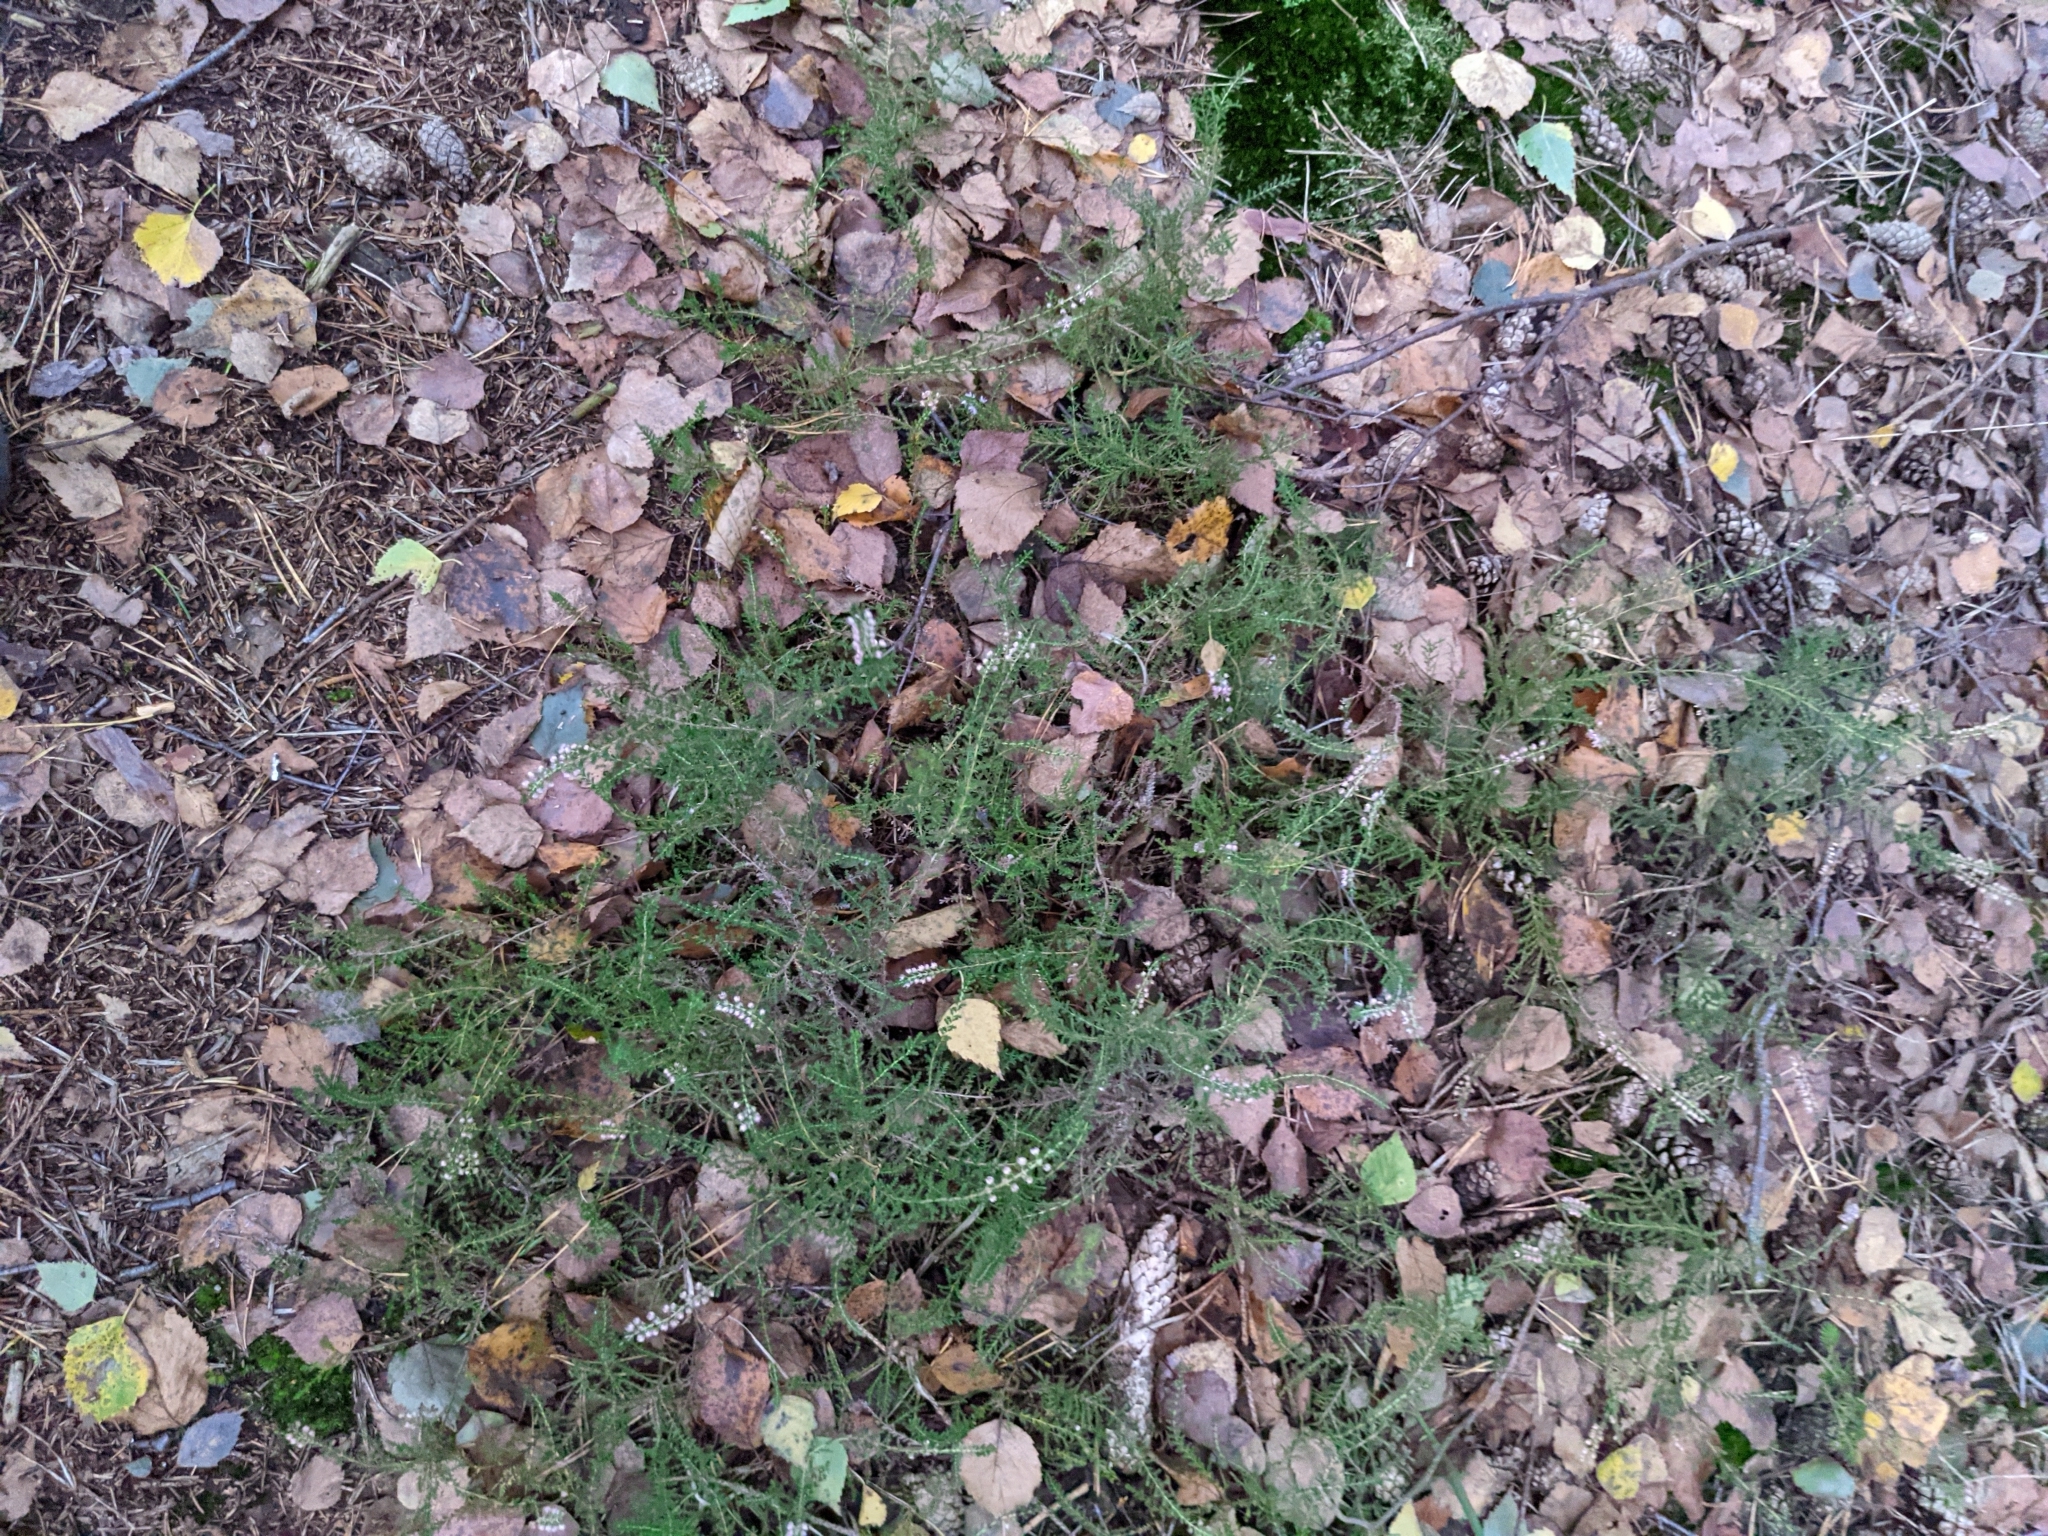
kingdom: Plantae
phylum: Tracheophyta
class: Magnoliopsida
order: Ericales
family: Ericaceae
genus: Calluna
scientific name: Calluna vulgaris
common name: Heather
